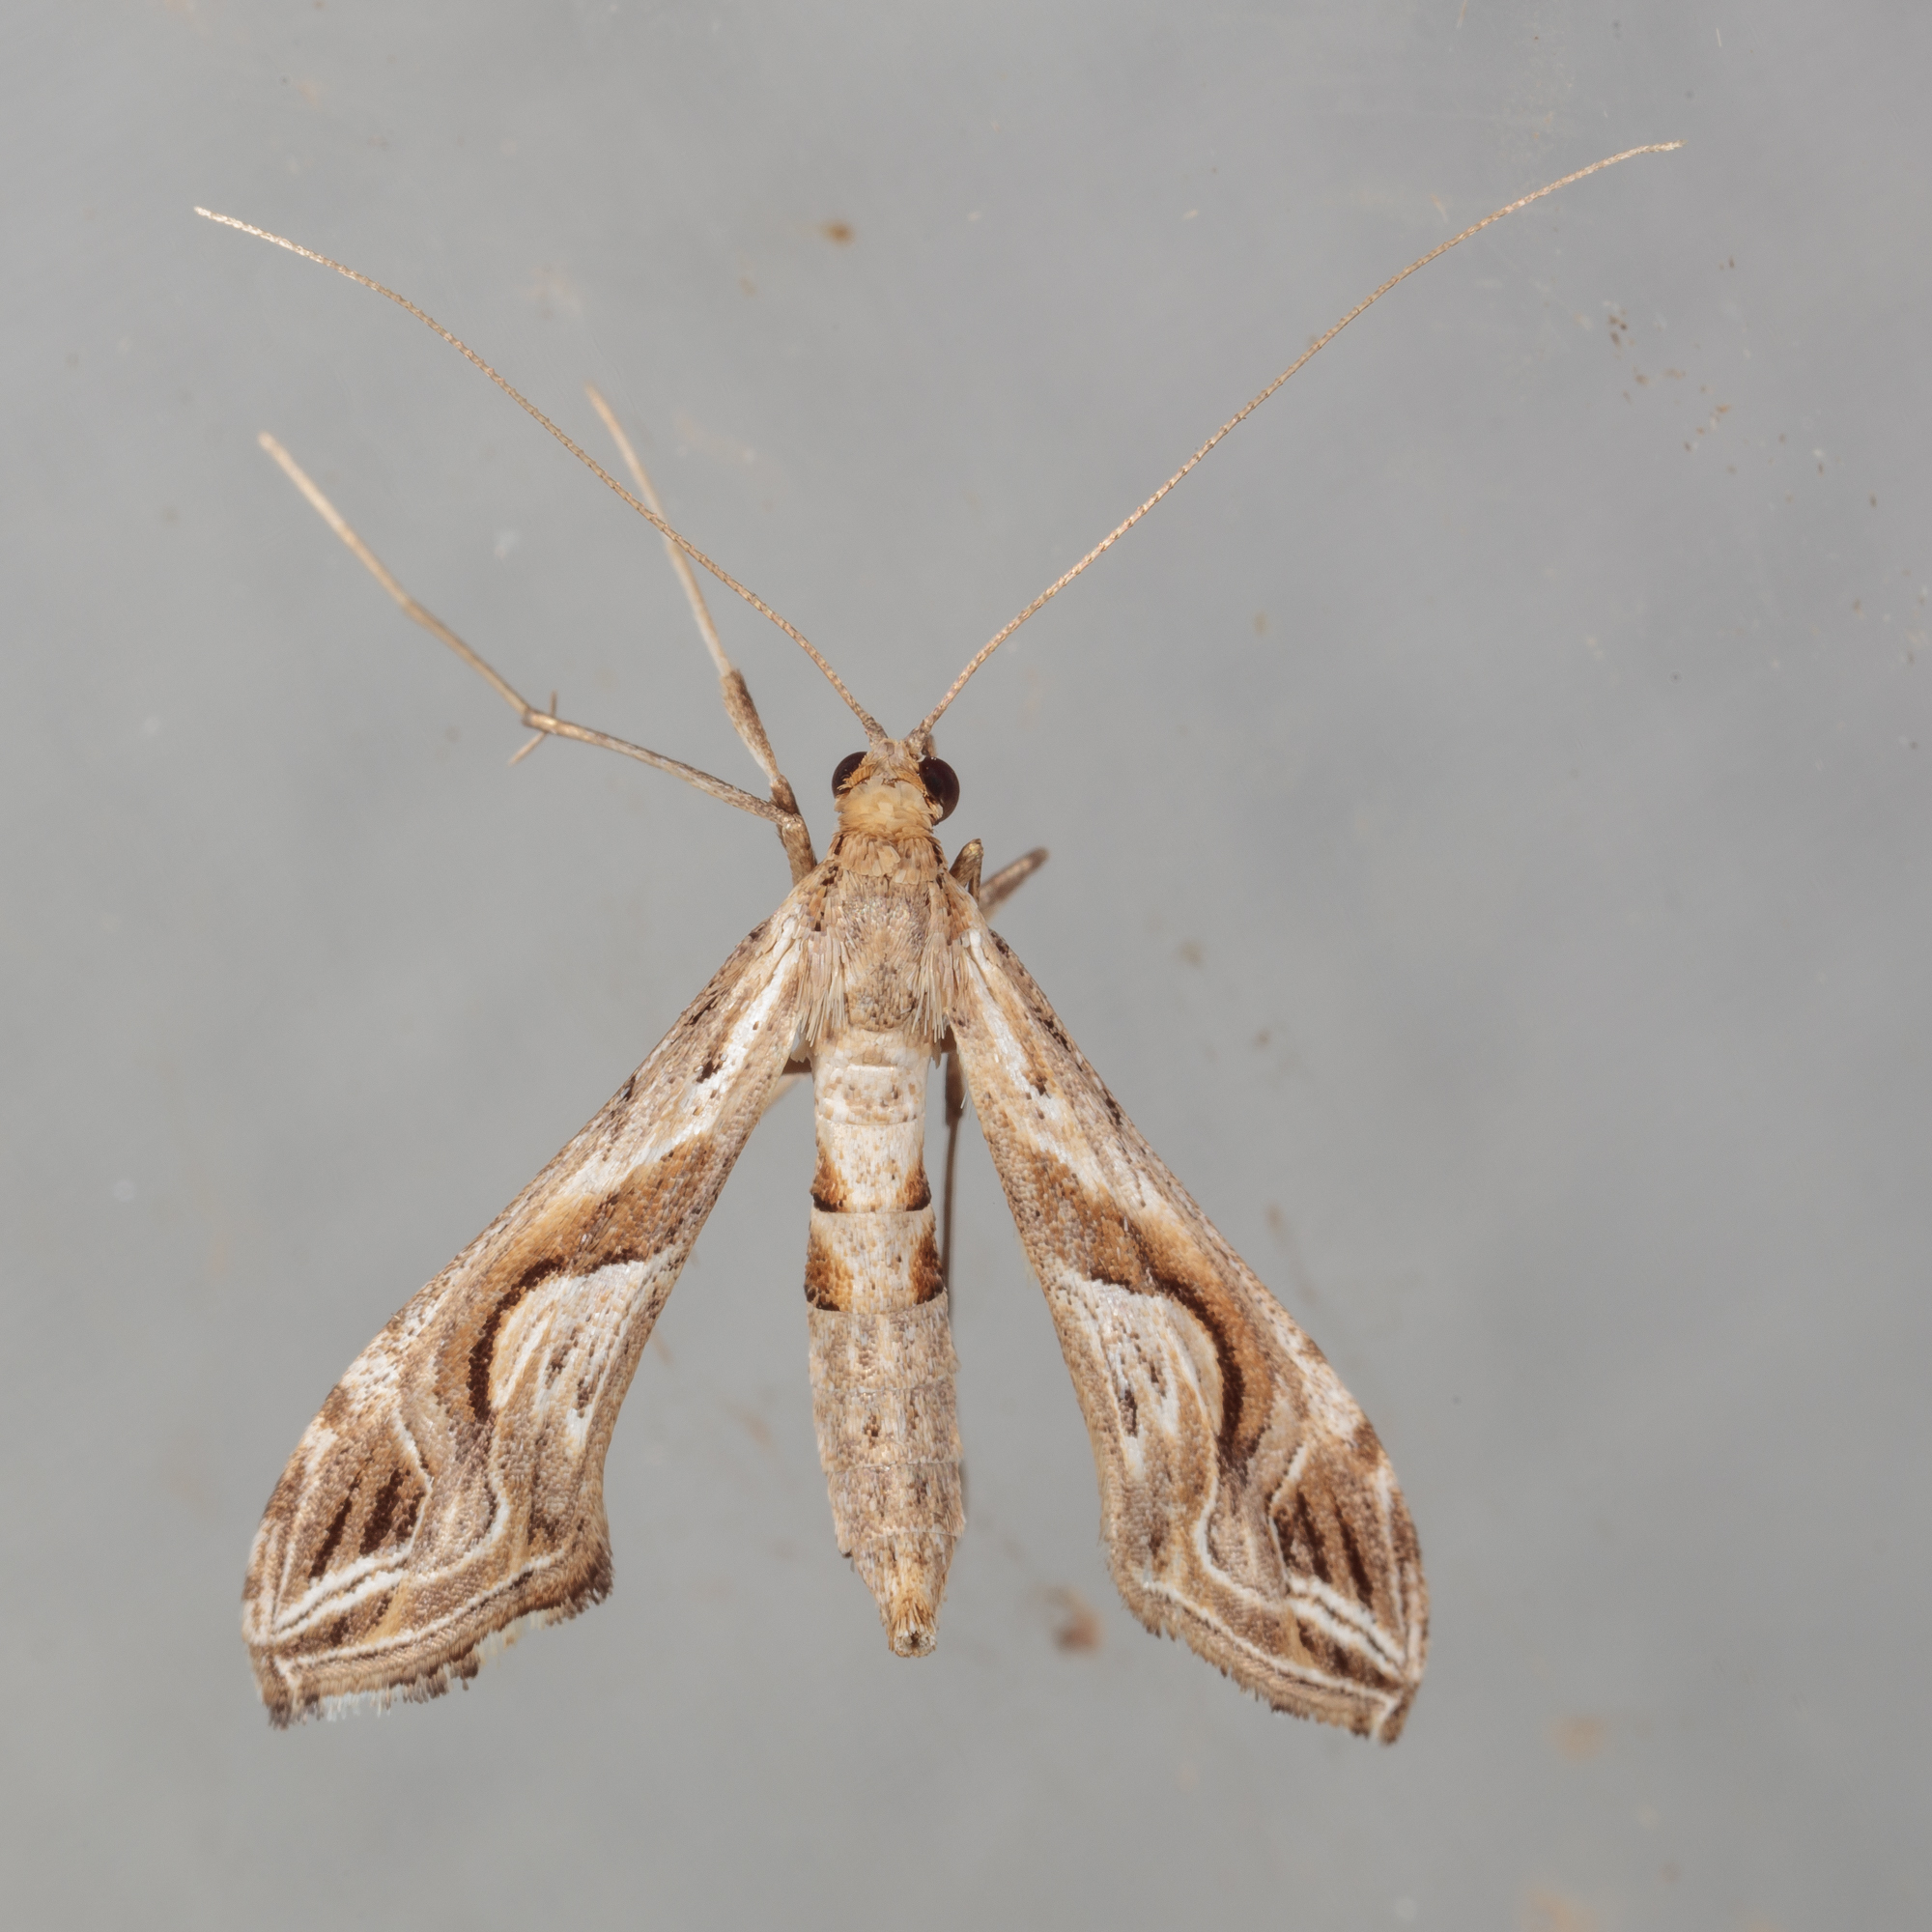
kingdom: Animalia
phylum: Arthropoda
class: Insecta
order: Lepidoptera
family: Crambidae
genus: Lineodes
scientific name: Lineodes integra
